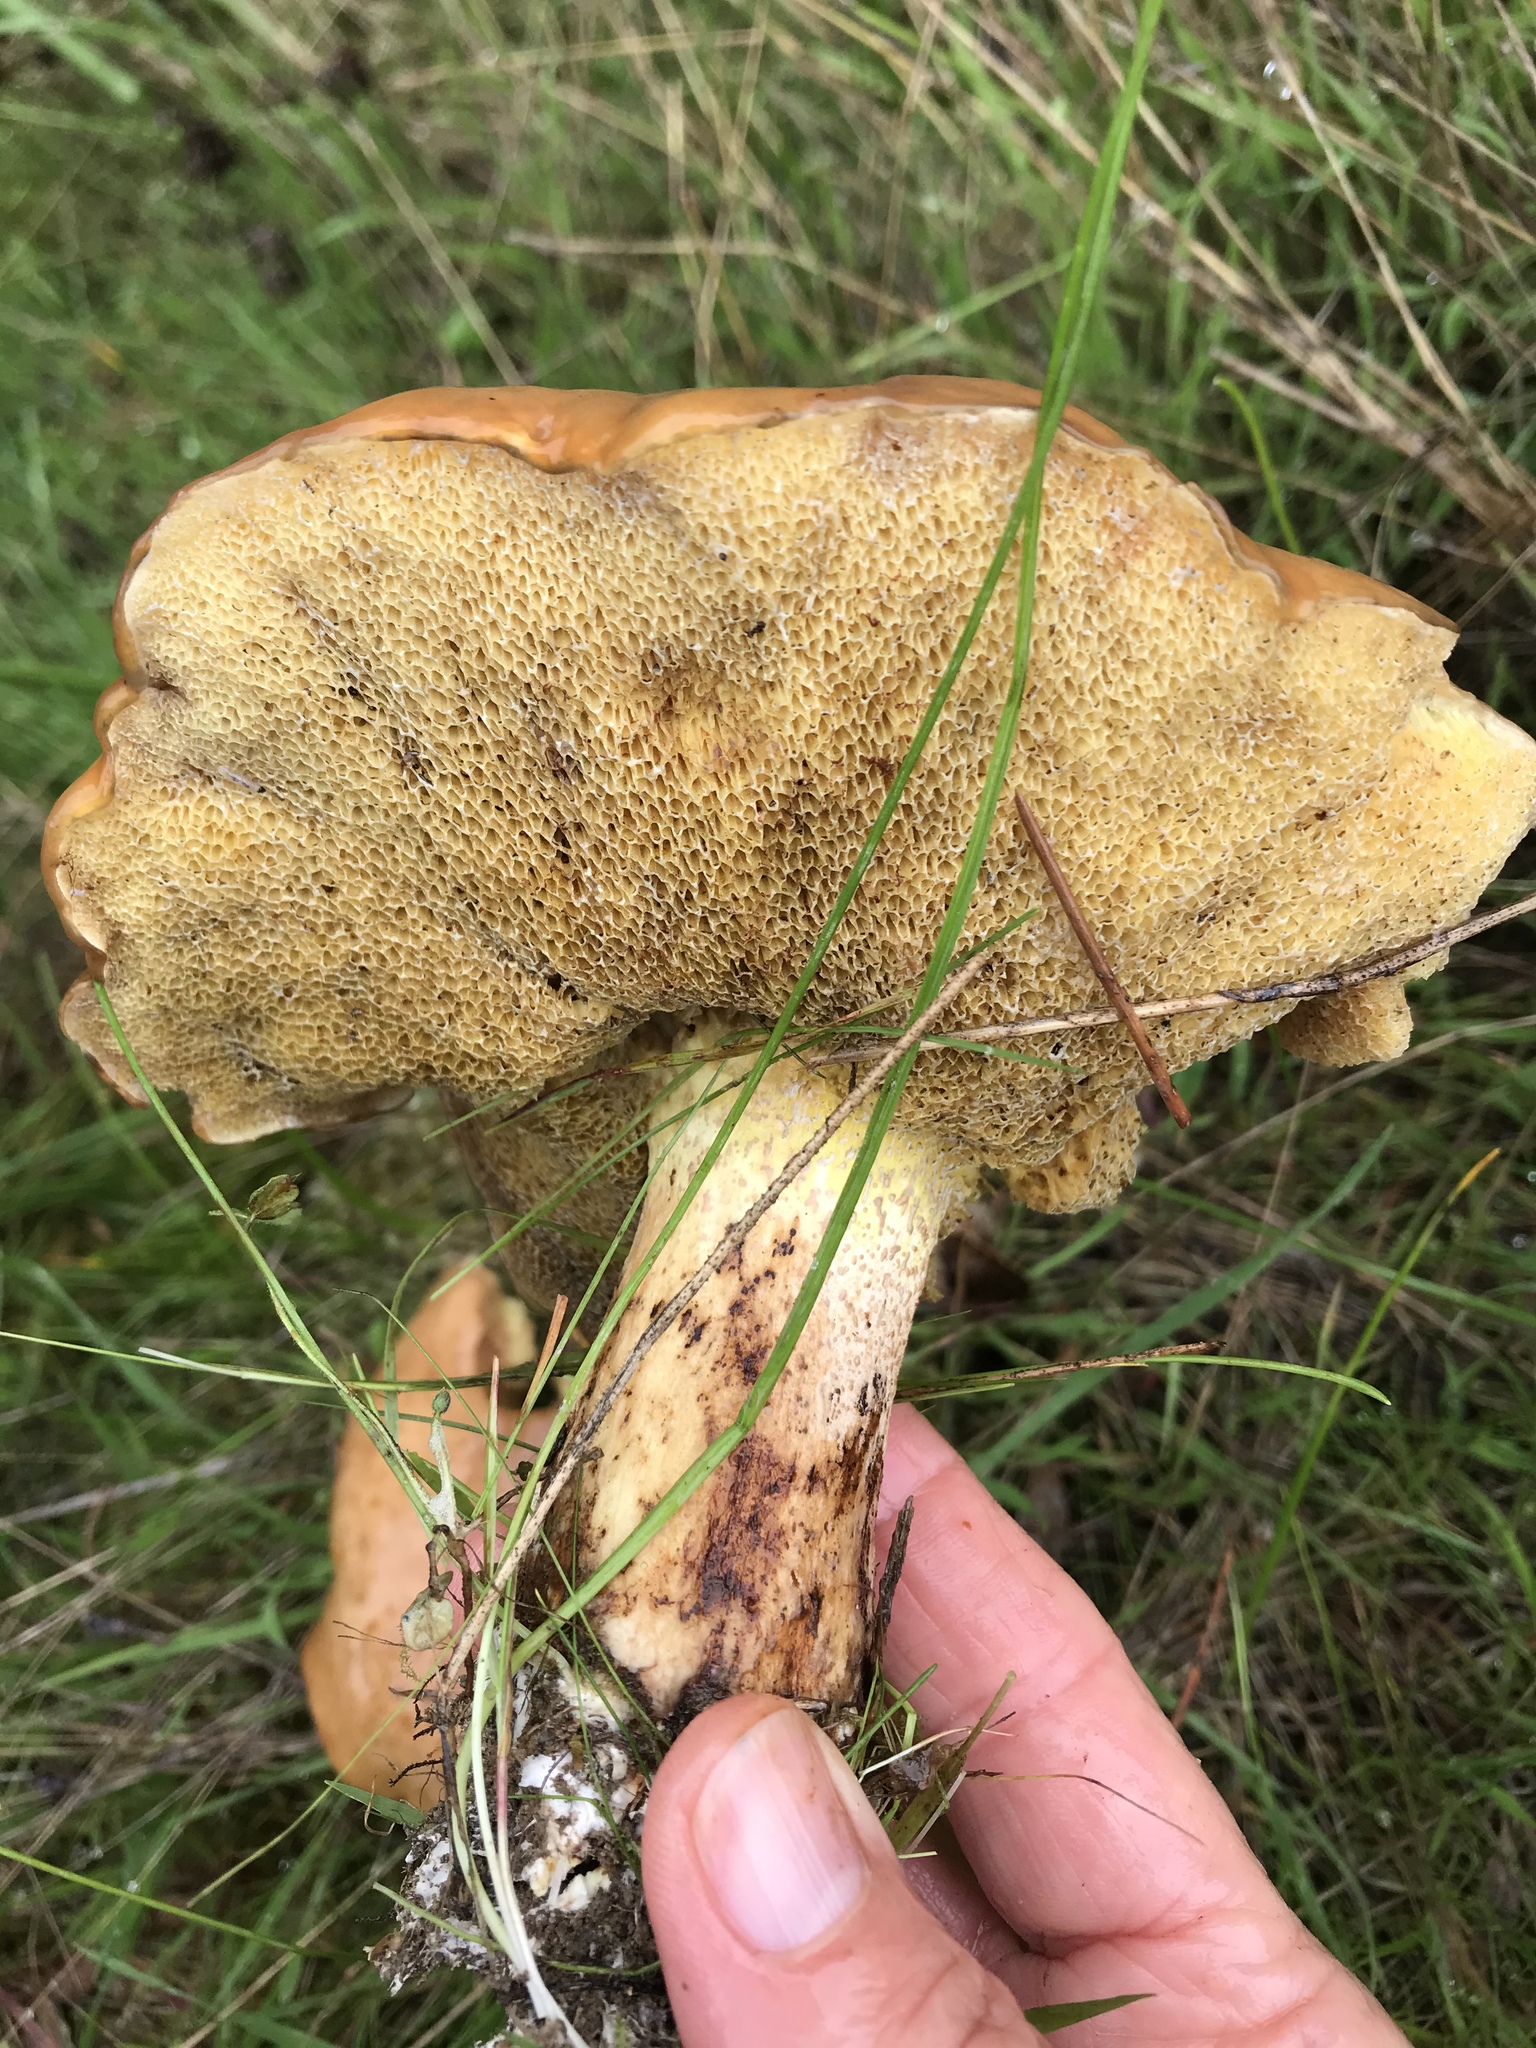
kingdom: Fungi
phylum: Basidiomycota
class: Agaricomycetes
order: Boletales
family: Suillaceae
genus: Suillus
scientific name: Suillus pungens
